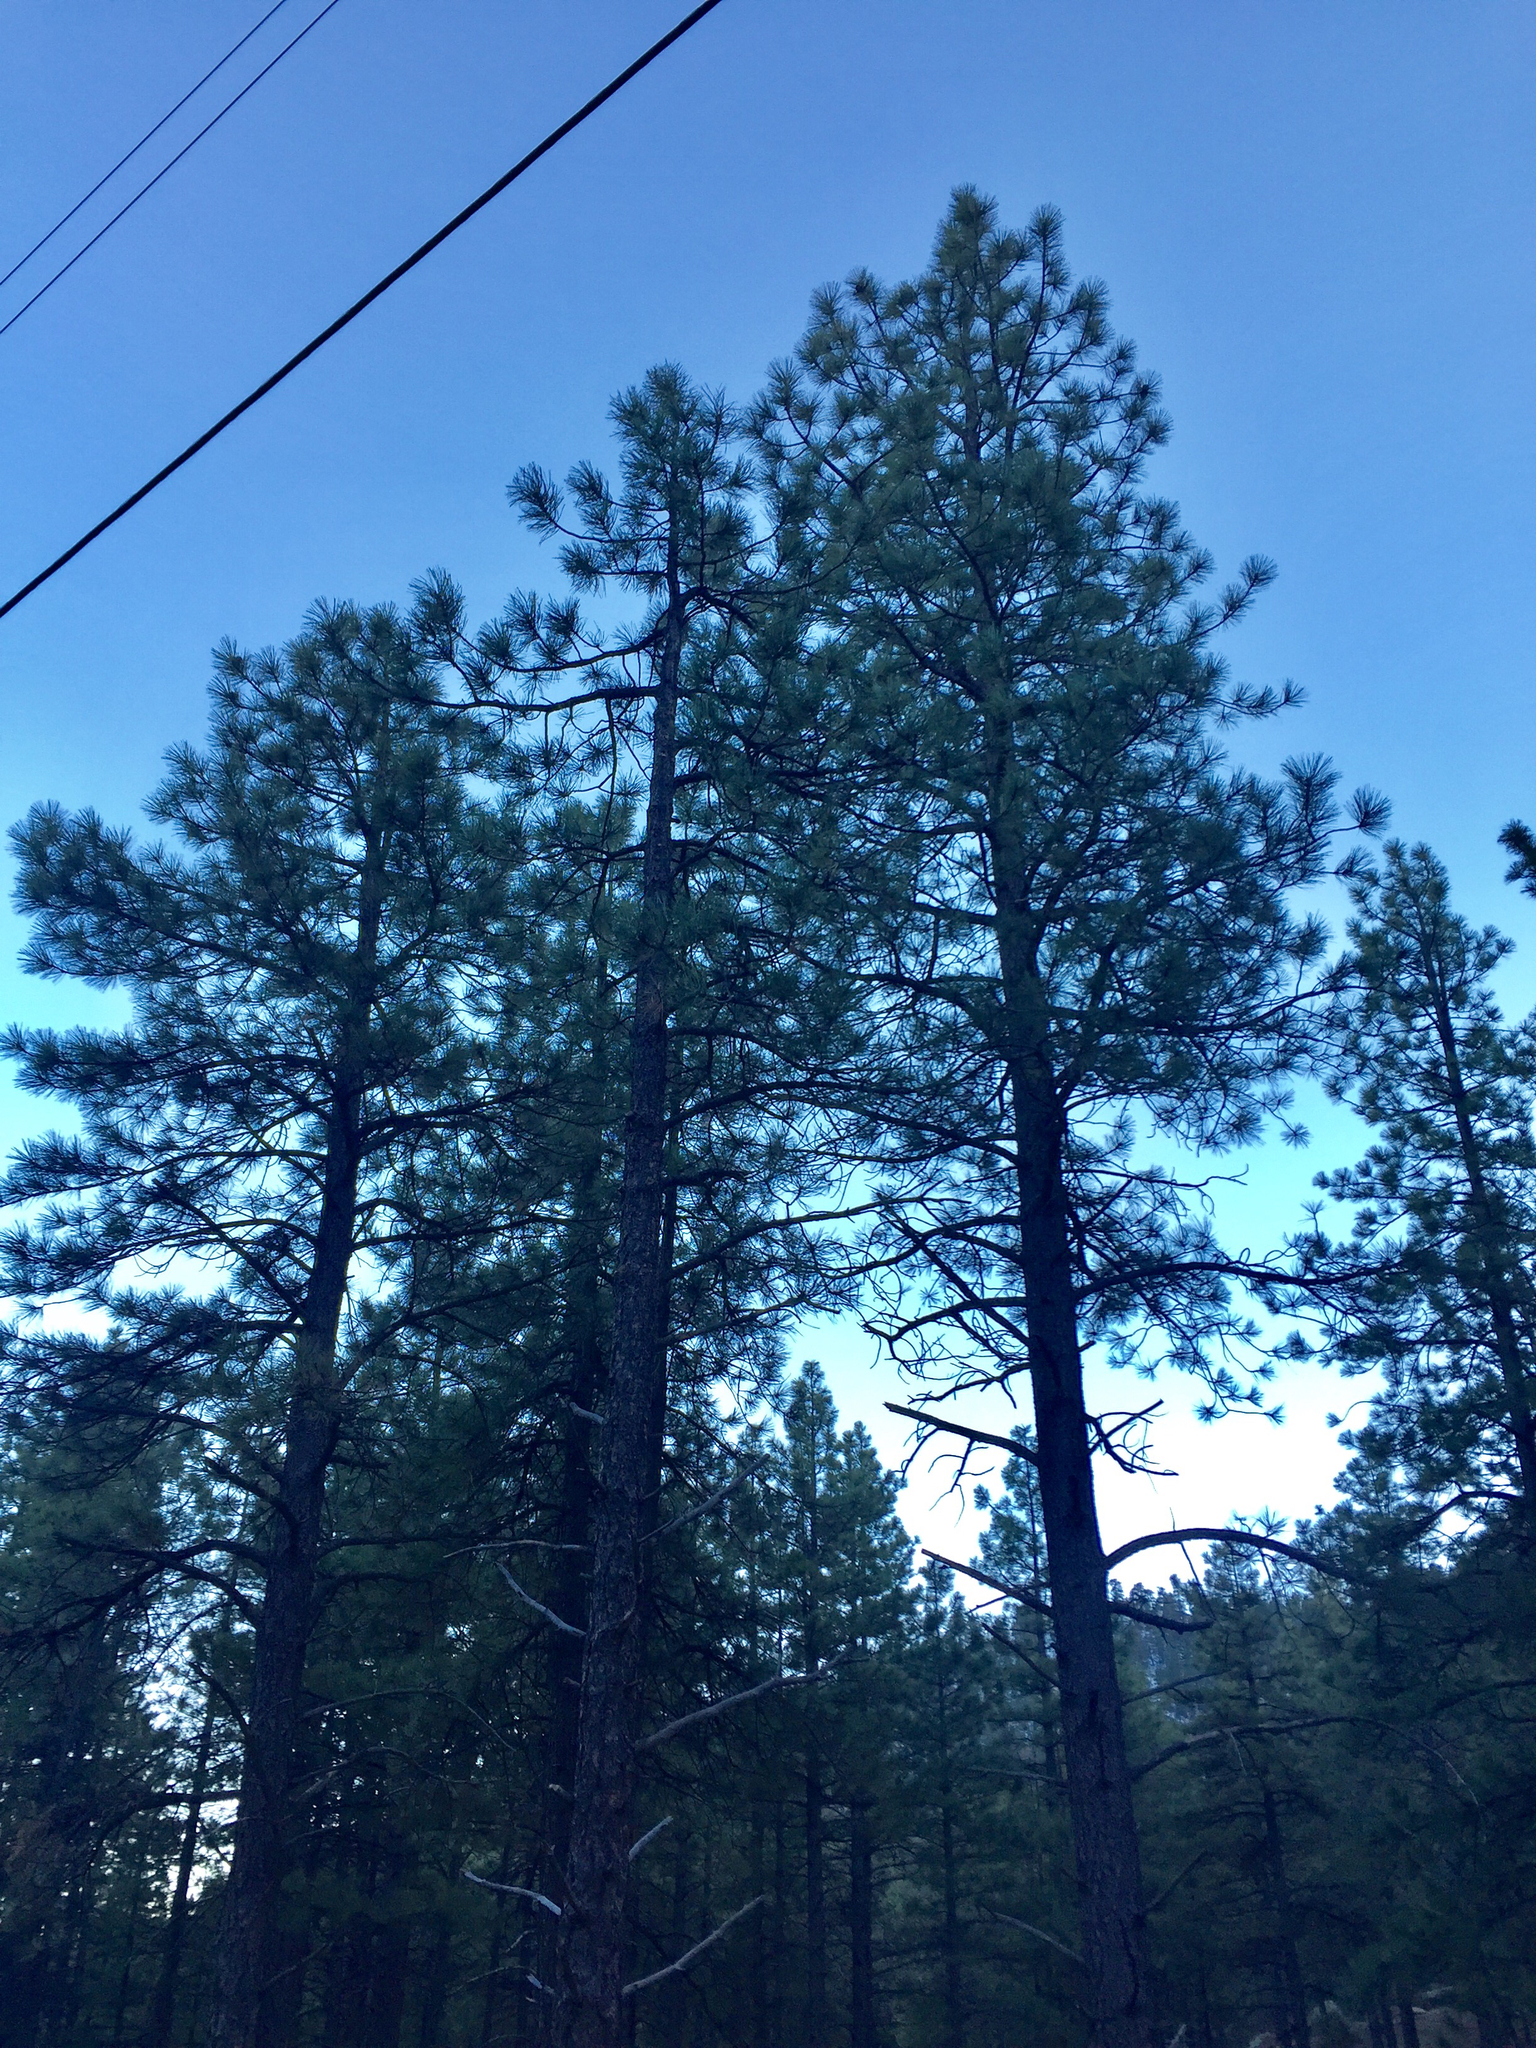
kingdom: Plantae
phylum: Tracheophyta
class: Pinopsida
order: Pinales
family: Pinaceae
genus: Pinus
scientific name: Pinus ponderosa
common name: Western yellow-pine
